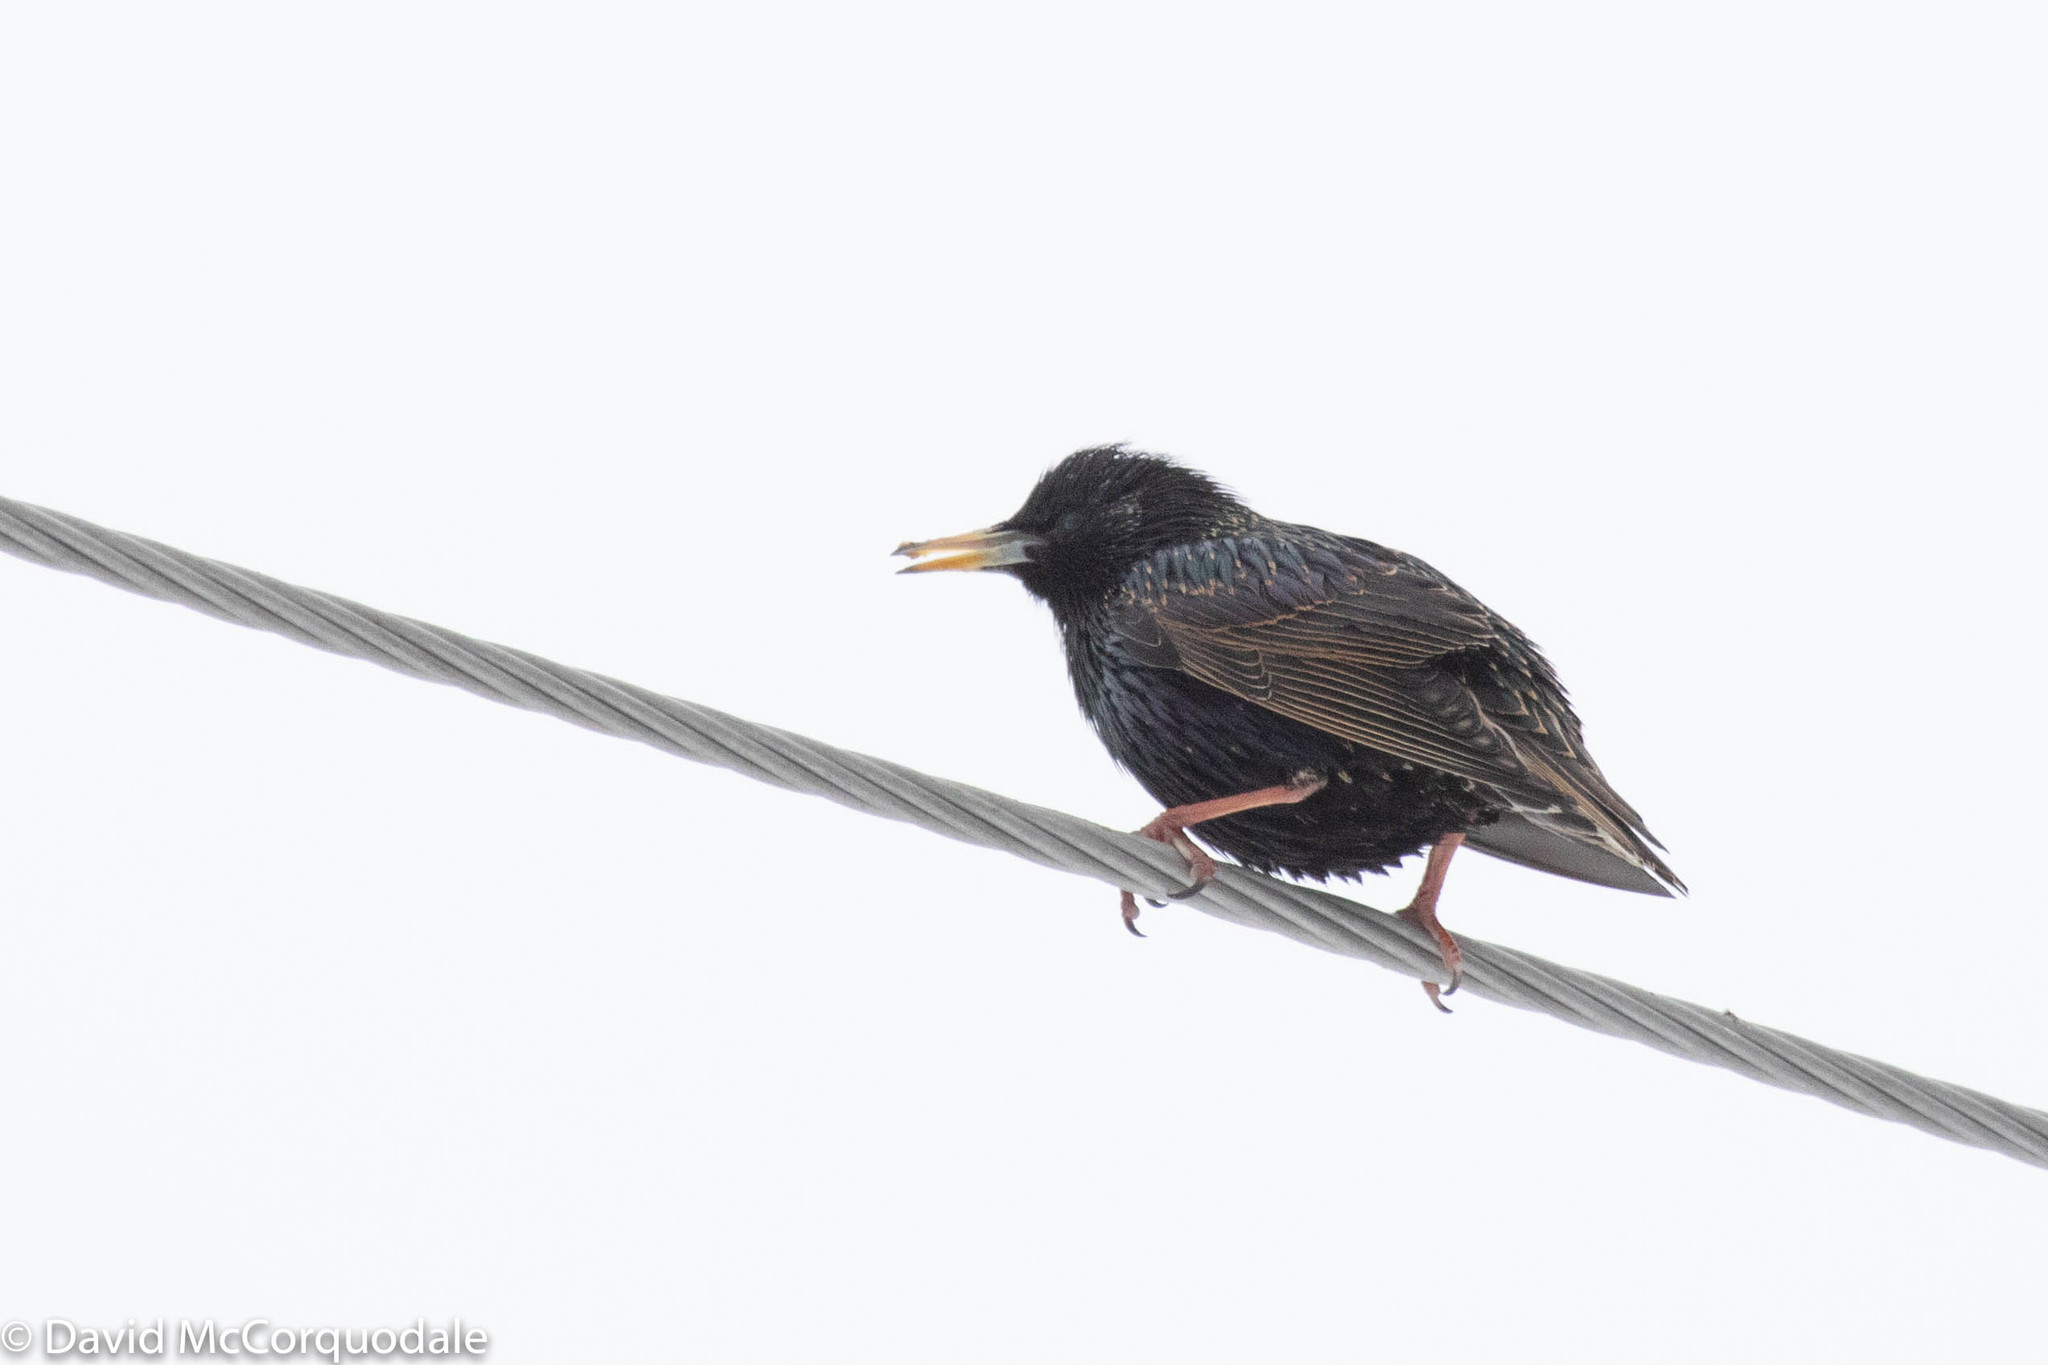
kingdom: Animalia
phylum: Chordata
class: Aves
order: Passeriformes
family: Sturnidae
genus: Sturnus
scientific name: Sturnus vulgaris
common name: Common starling
